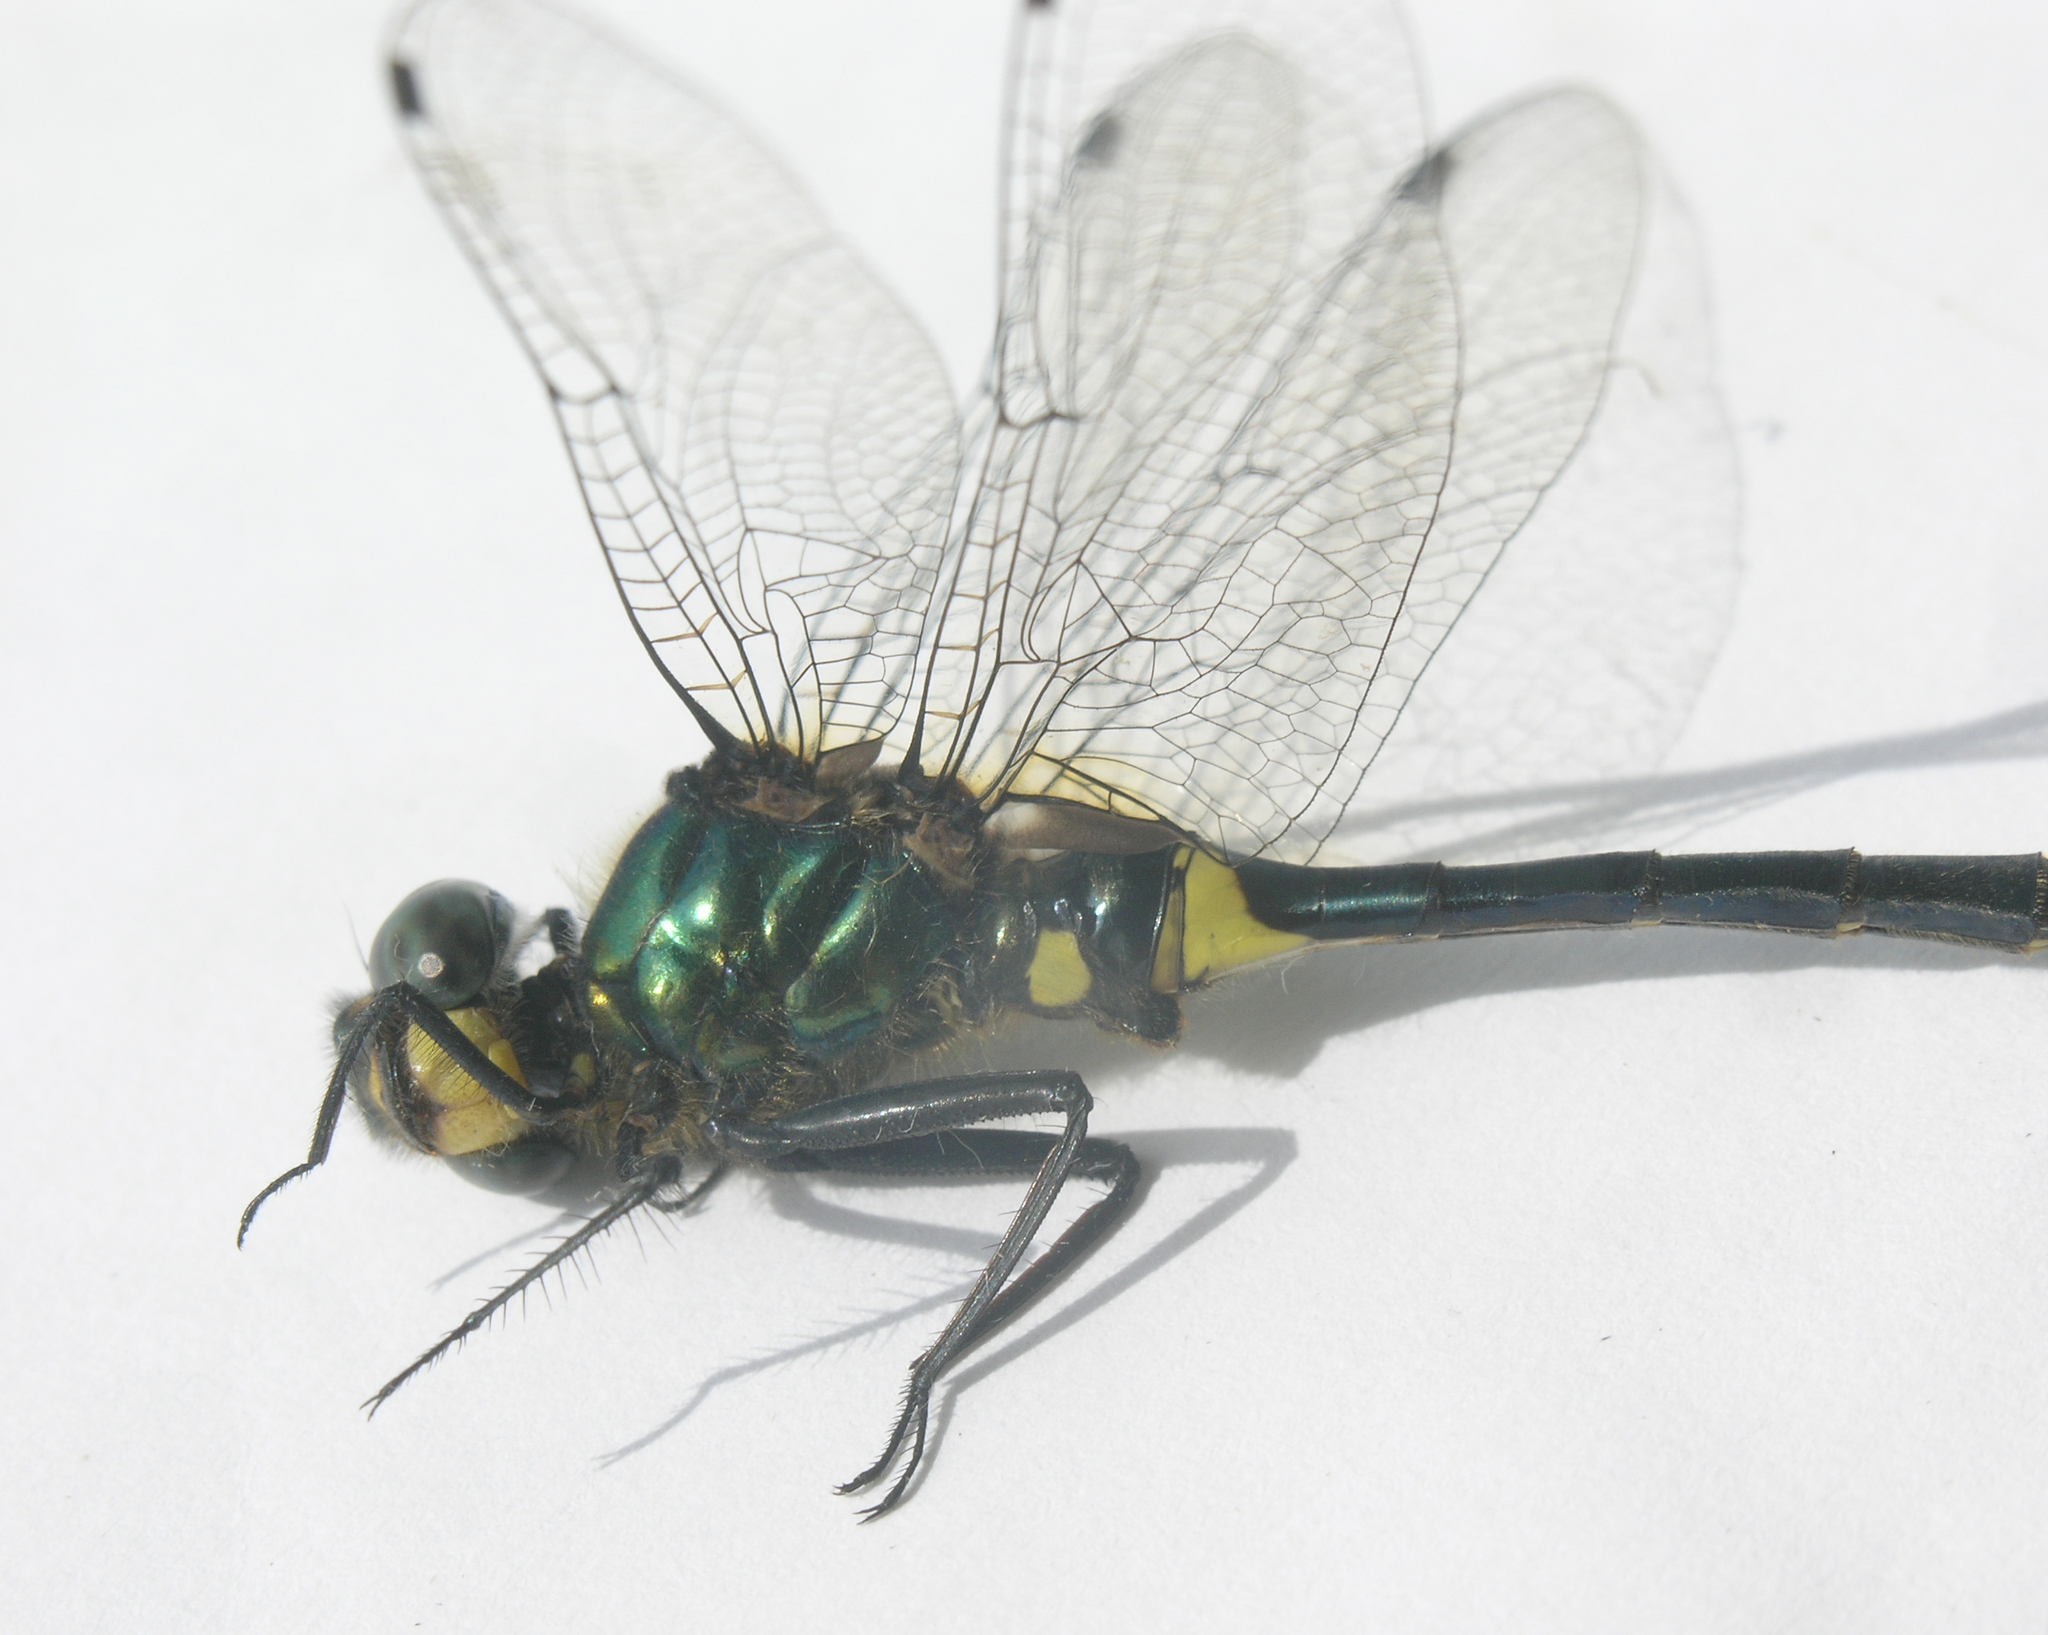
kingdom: Animalia
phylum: Arthropoda
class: Insecta
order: Odonata
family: Corduliidae
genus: Somatochlora
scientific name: Somatochlora graeseri
